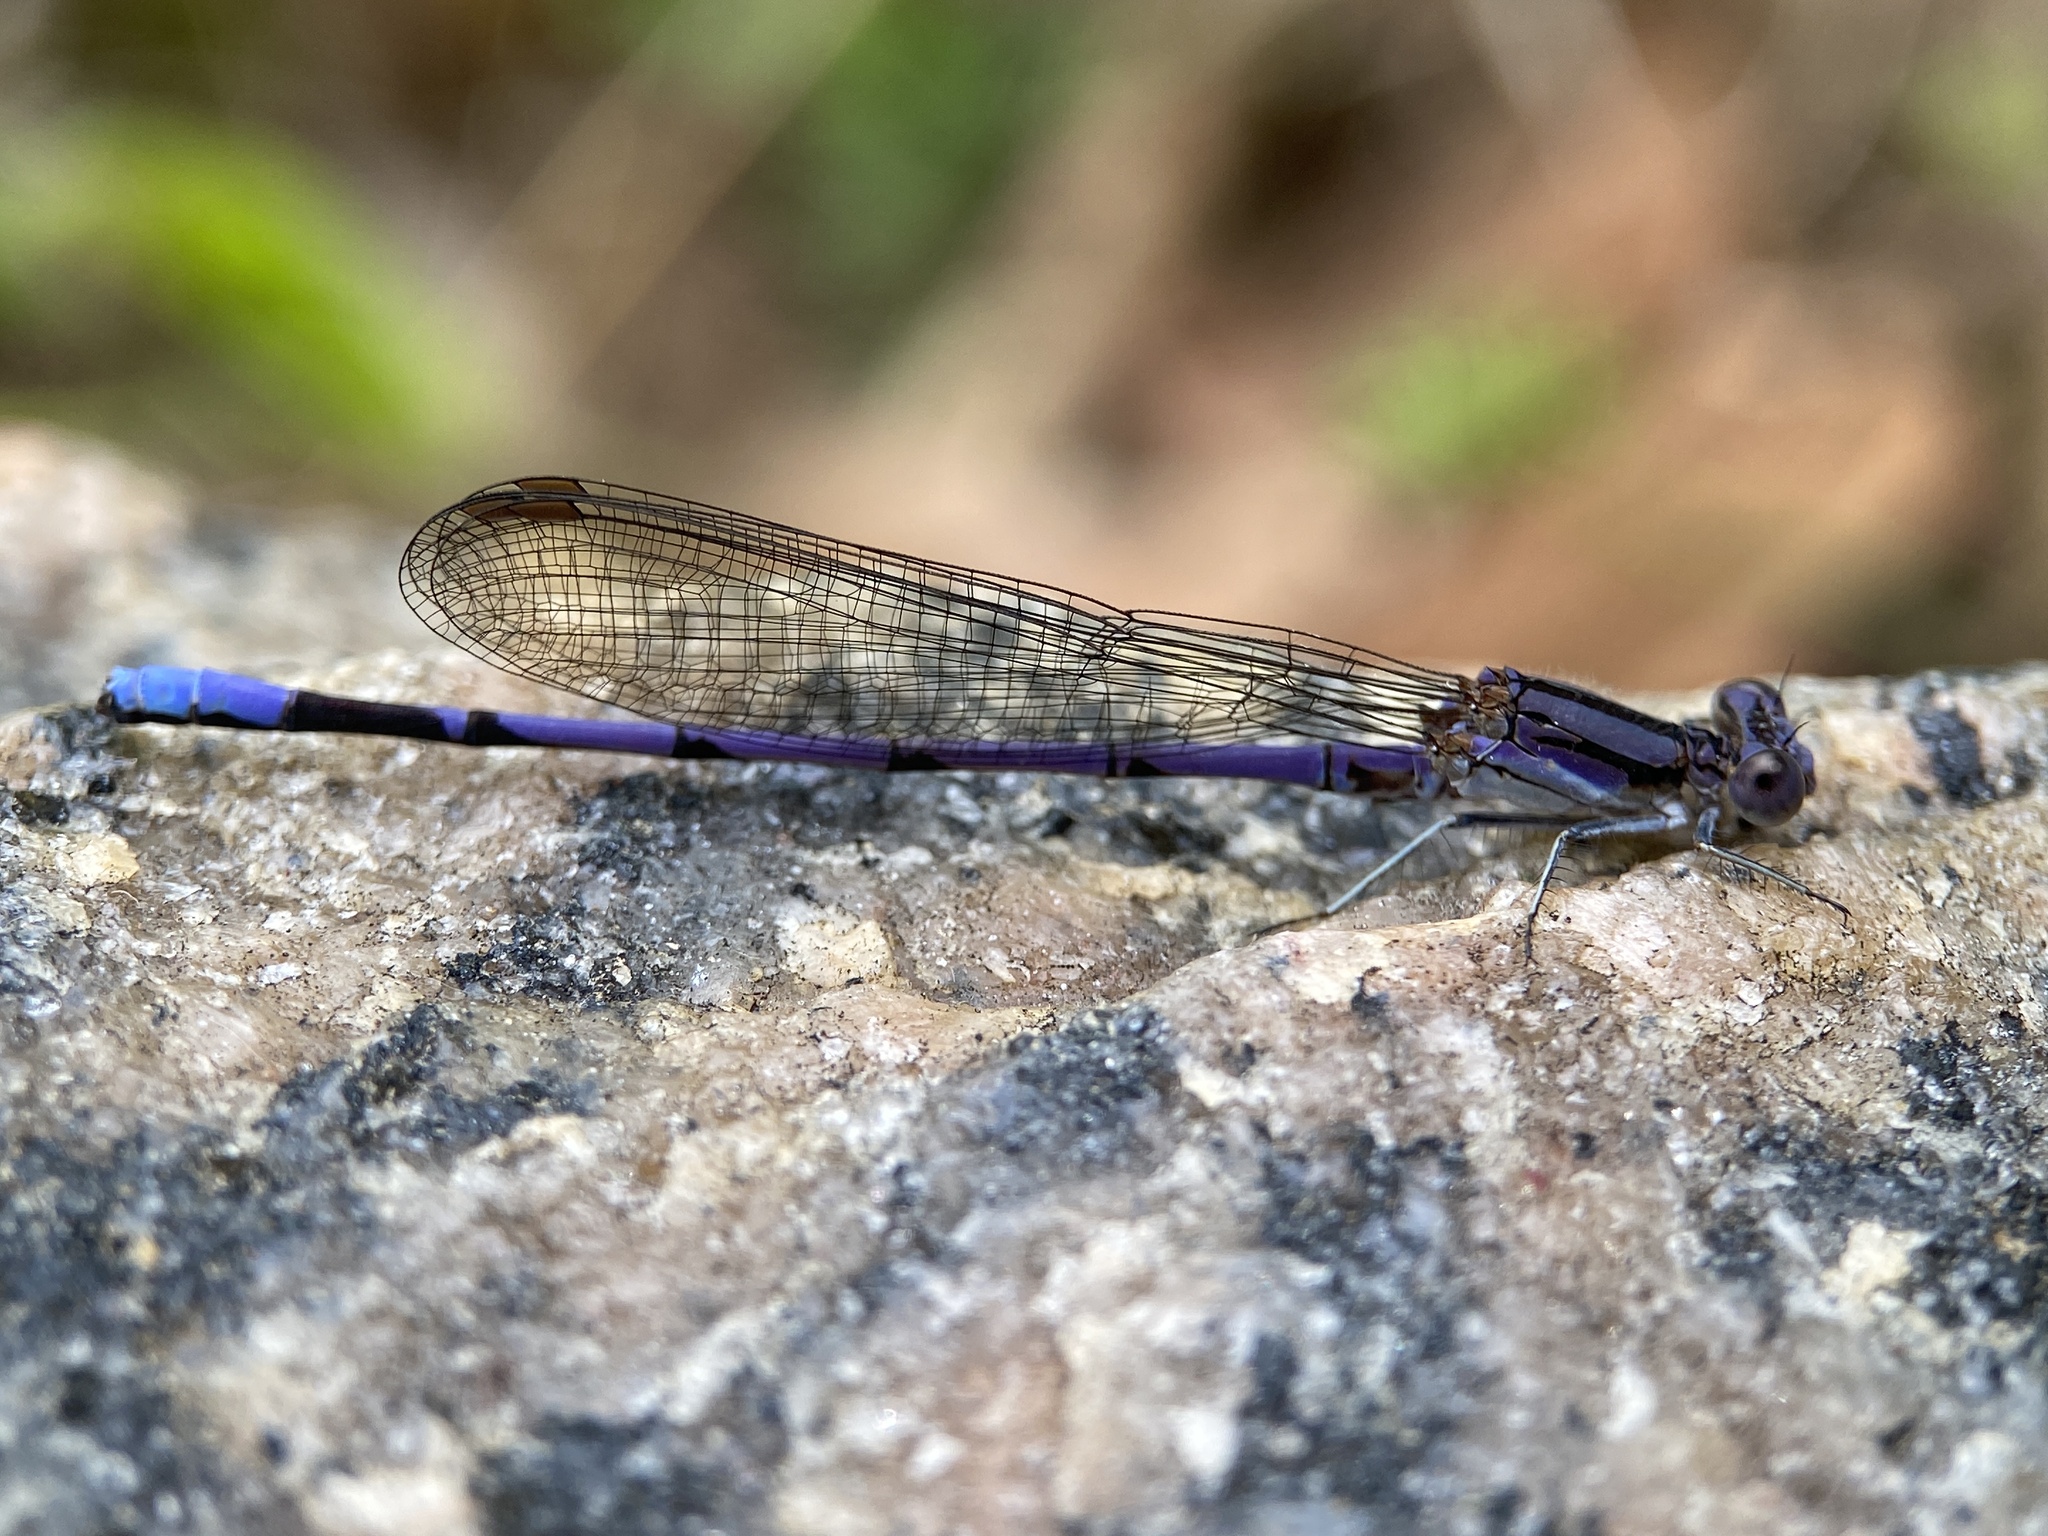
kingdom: Animalia
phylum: Arthropoda
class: Insecta
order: Odonata
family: Coenagrionidae
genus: Argia
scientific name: Argia fumipennis
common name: Variable dancer
